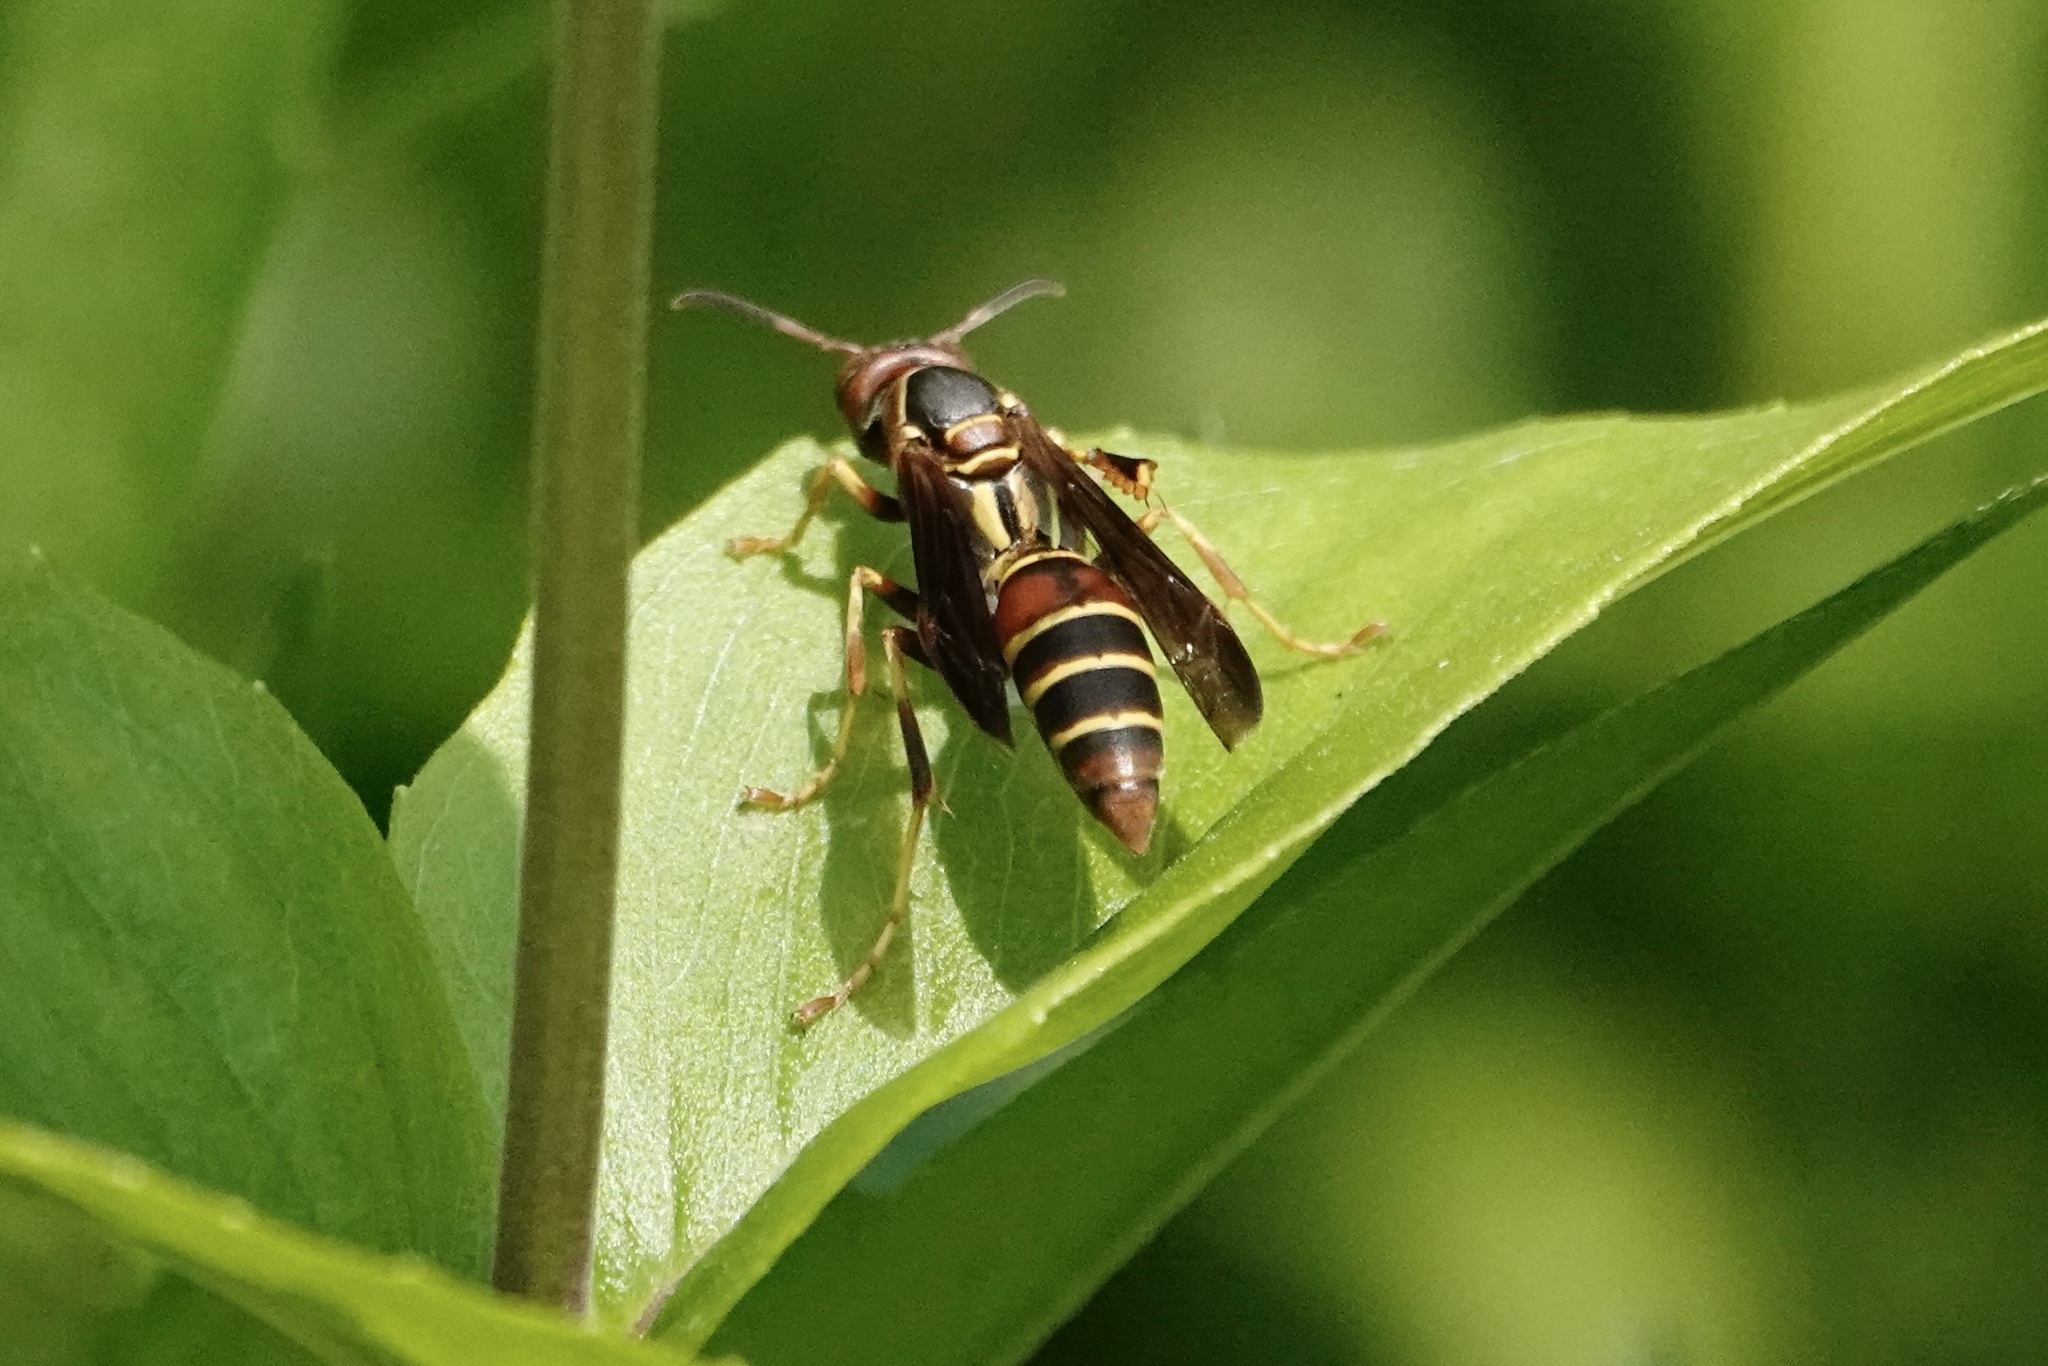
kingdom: Animalia
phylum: Arthropoda
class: Insecta
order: Hymenoptera
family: Eumenidae
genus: Polistes
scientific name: Polistes dorsalis
